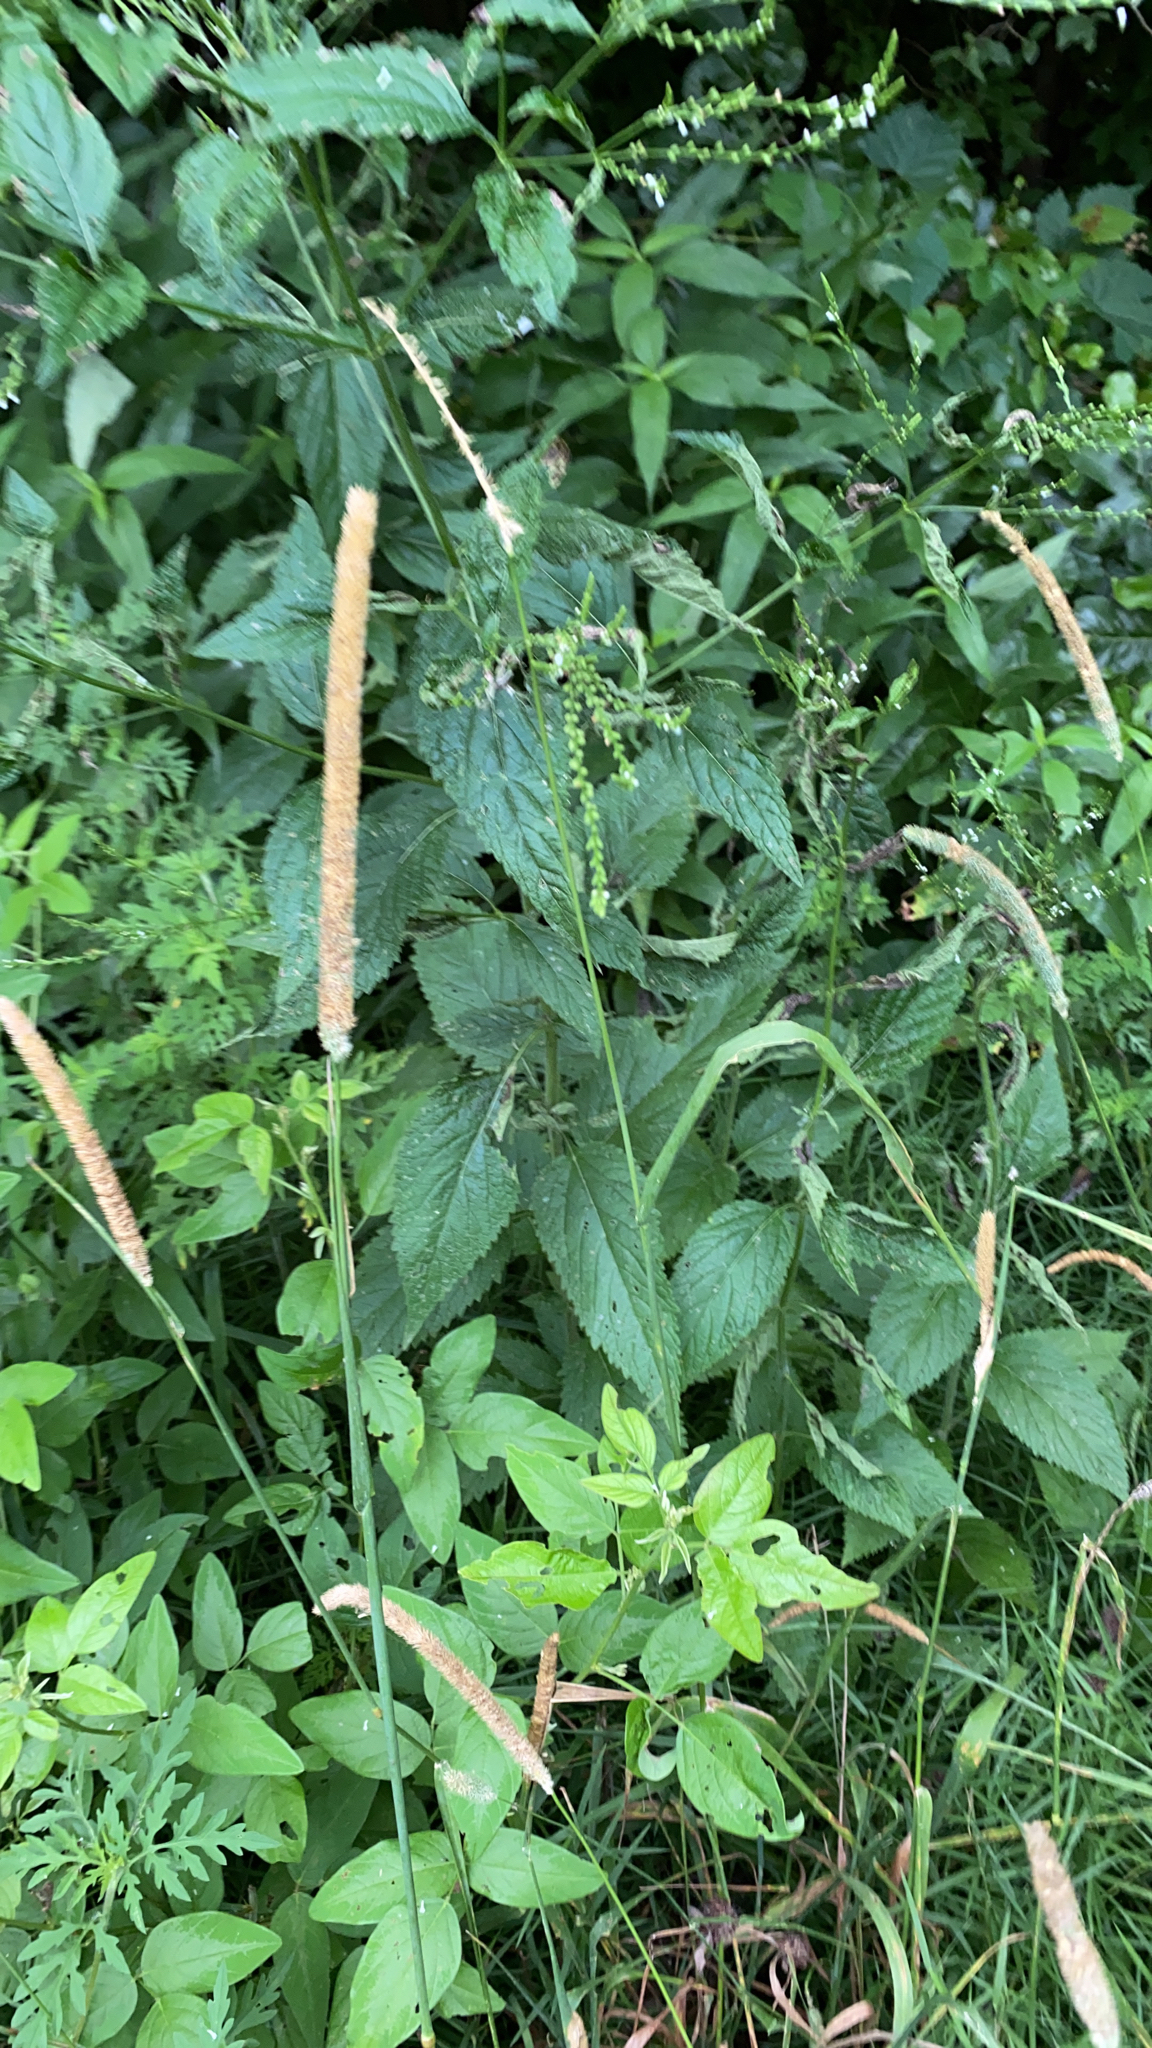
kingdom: Plantae
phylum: Tracheophyta
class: Liliopsida
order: Poales
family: Poaceae
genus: Phleum
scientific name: Phleum pratense
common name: Timothy grass
